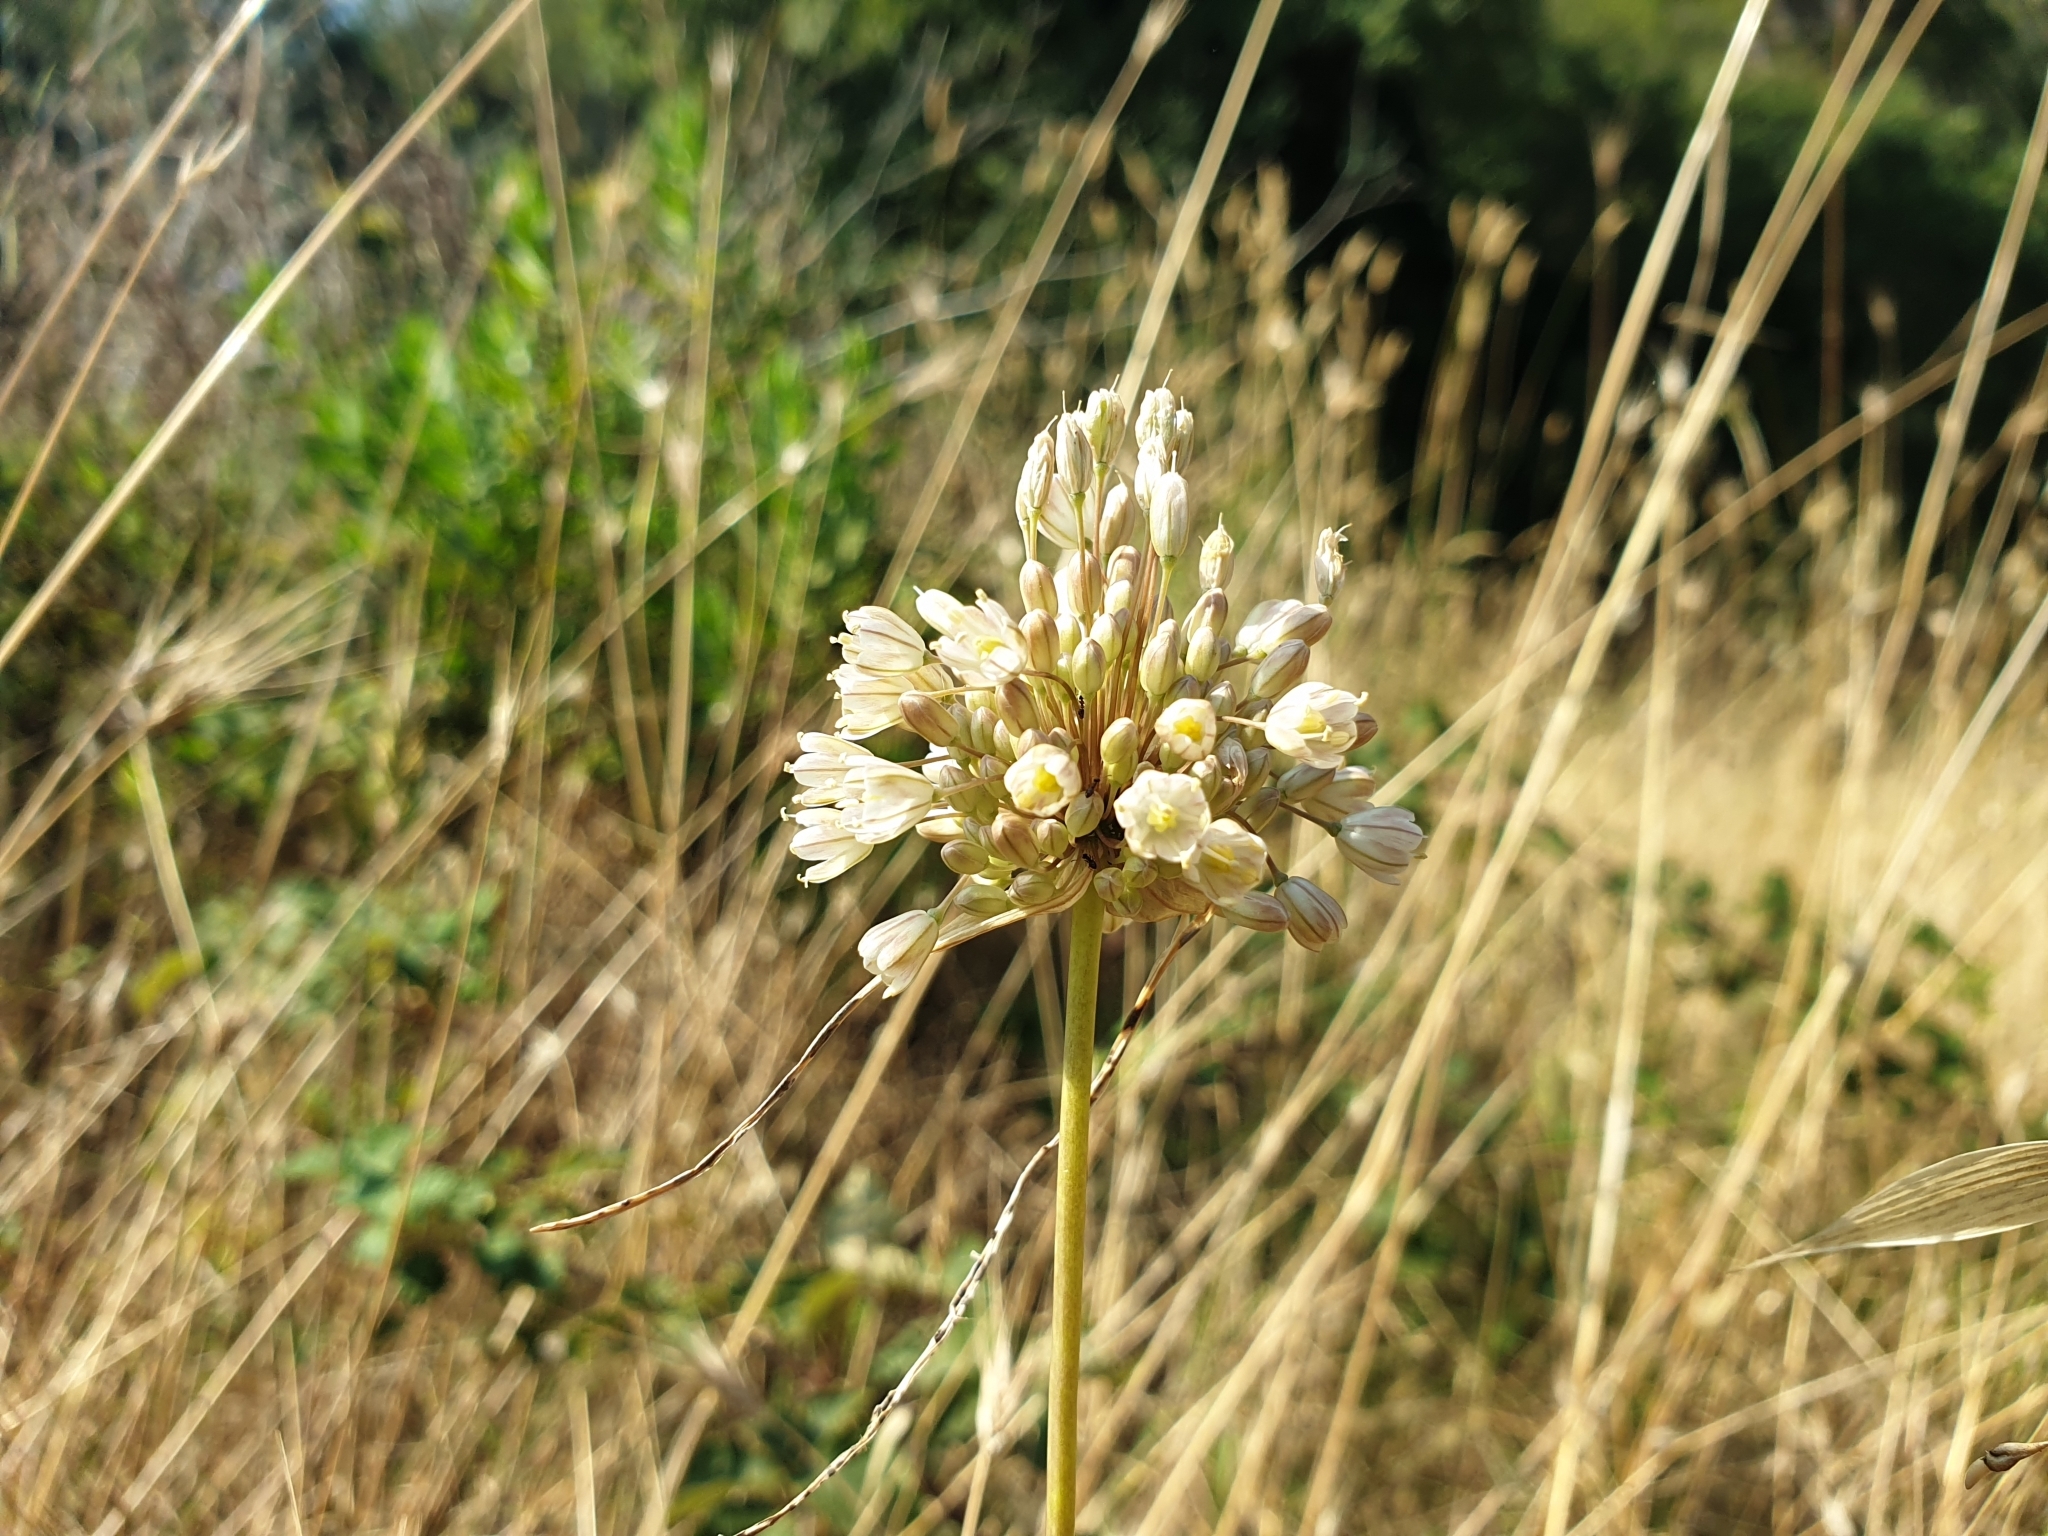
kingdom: Plantae
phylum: Tracheophyta
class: Liliopsida
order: Asparagales
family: Amaryllidaceae
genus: Allium
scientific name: Allium pallens
